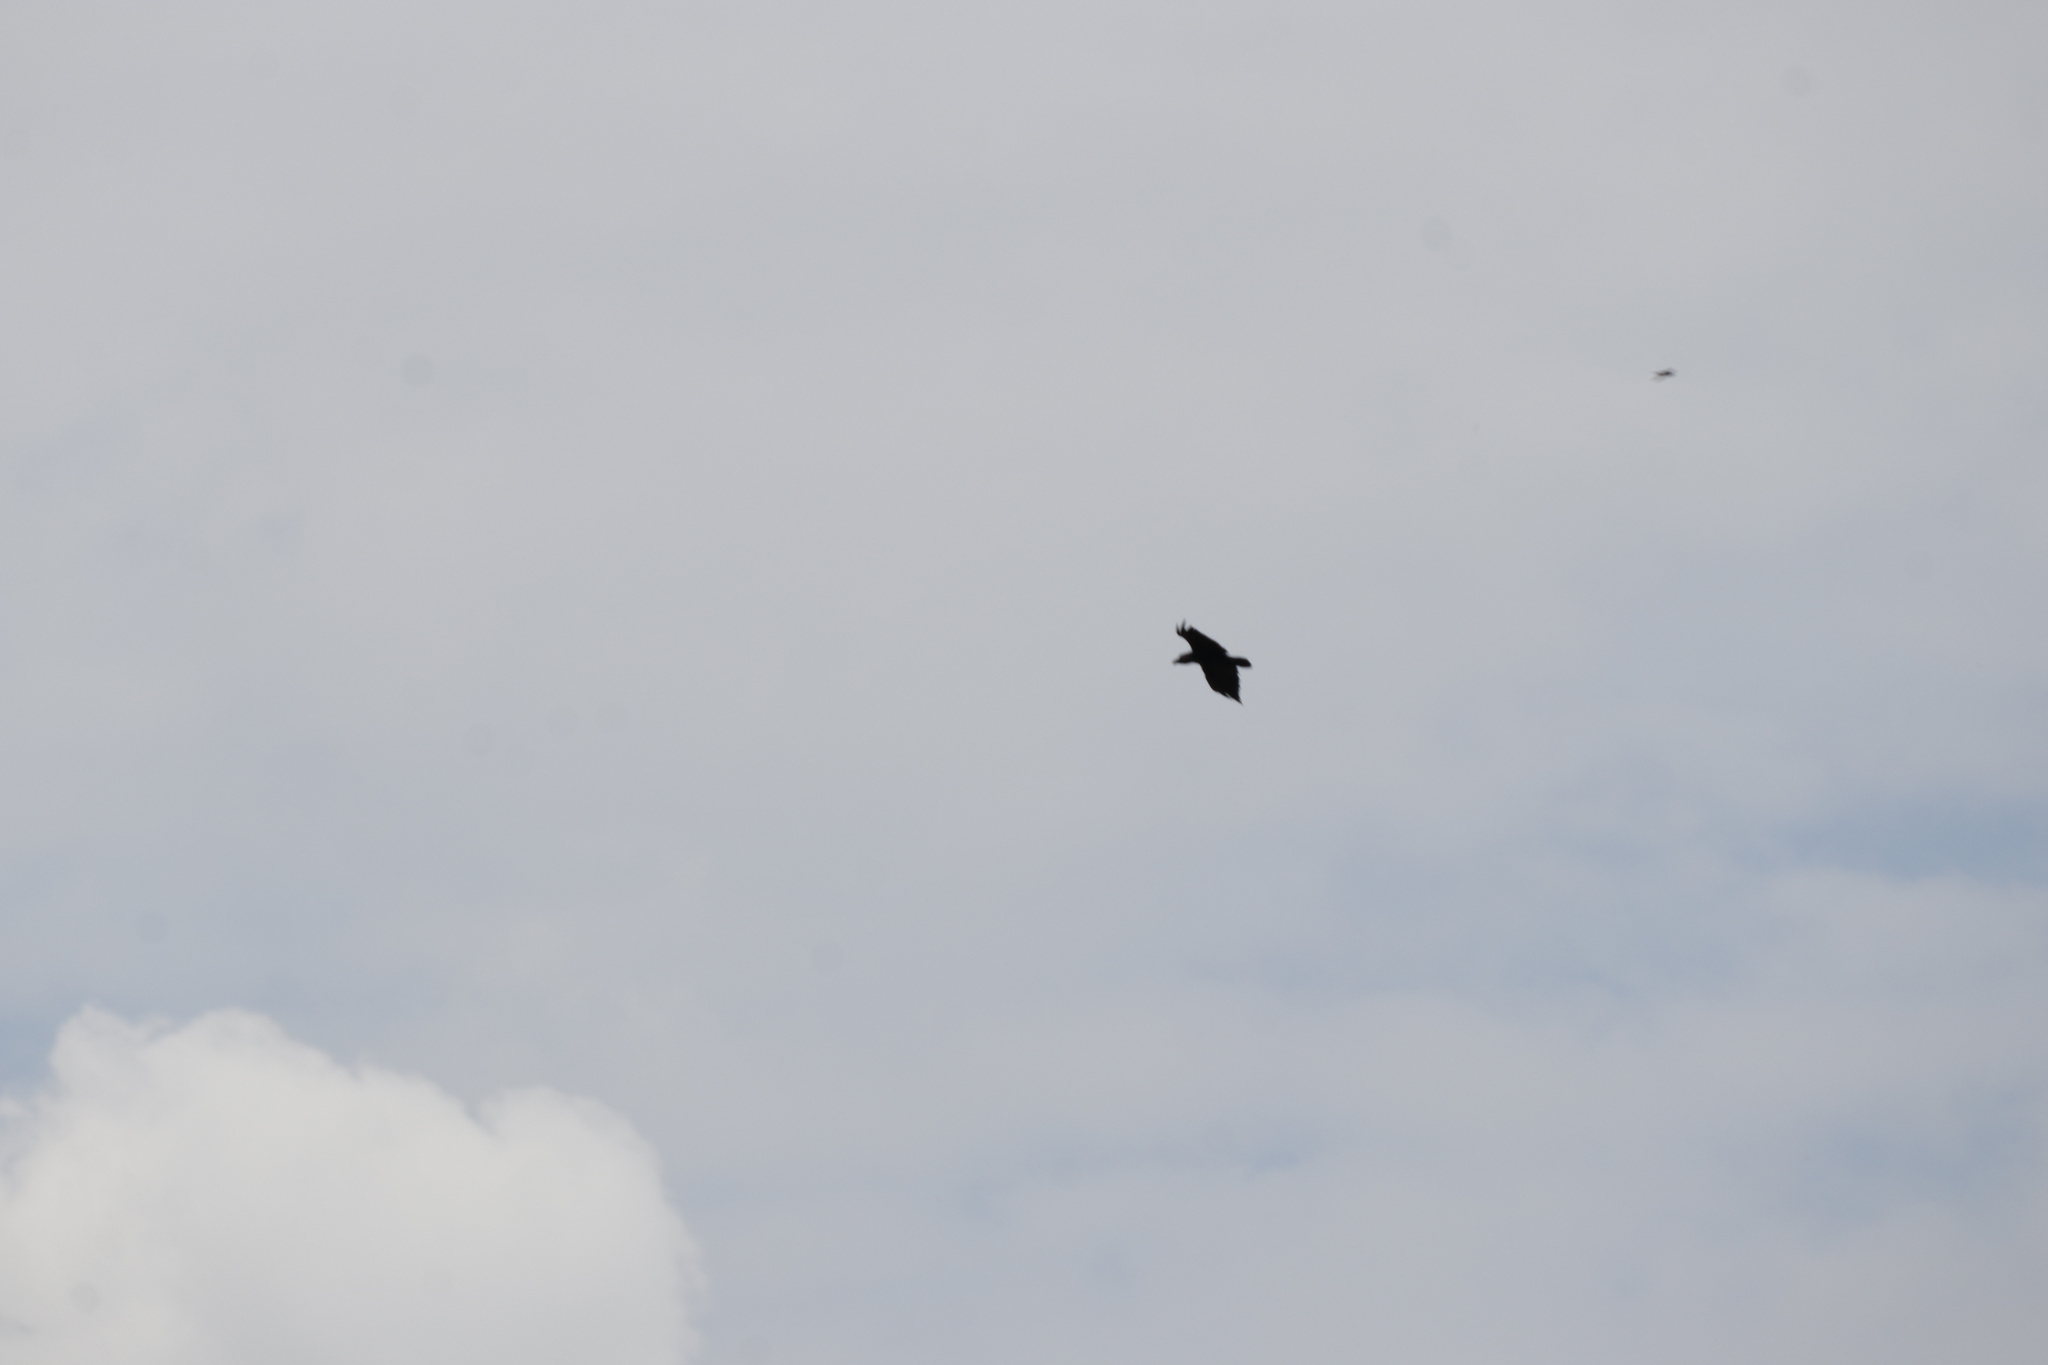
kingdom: Animalia
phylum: Chordata
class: Aves
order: Passeriformes
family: Corvidae
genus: Corvus
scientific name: Corvus albicollis
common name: White-necked raven
